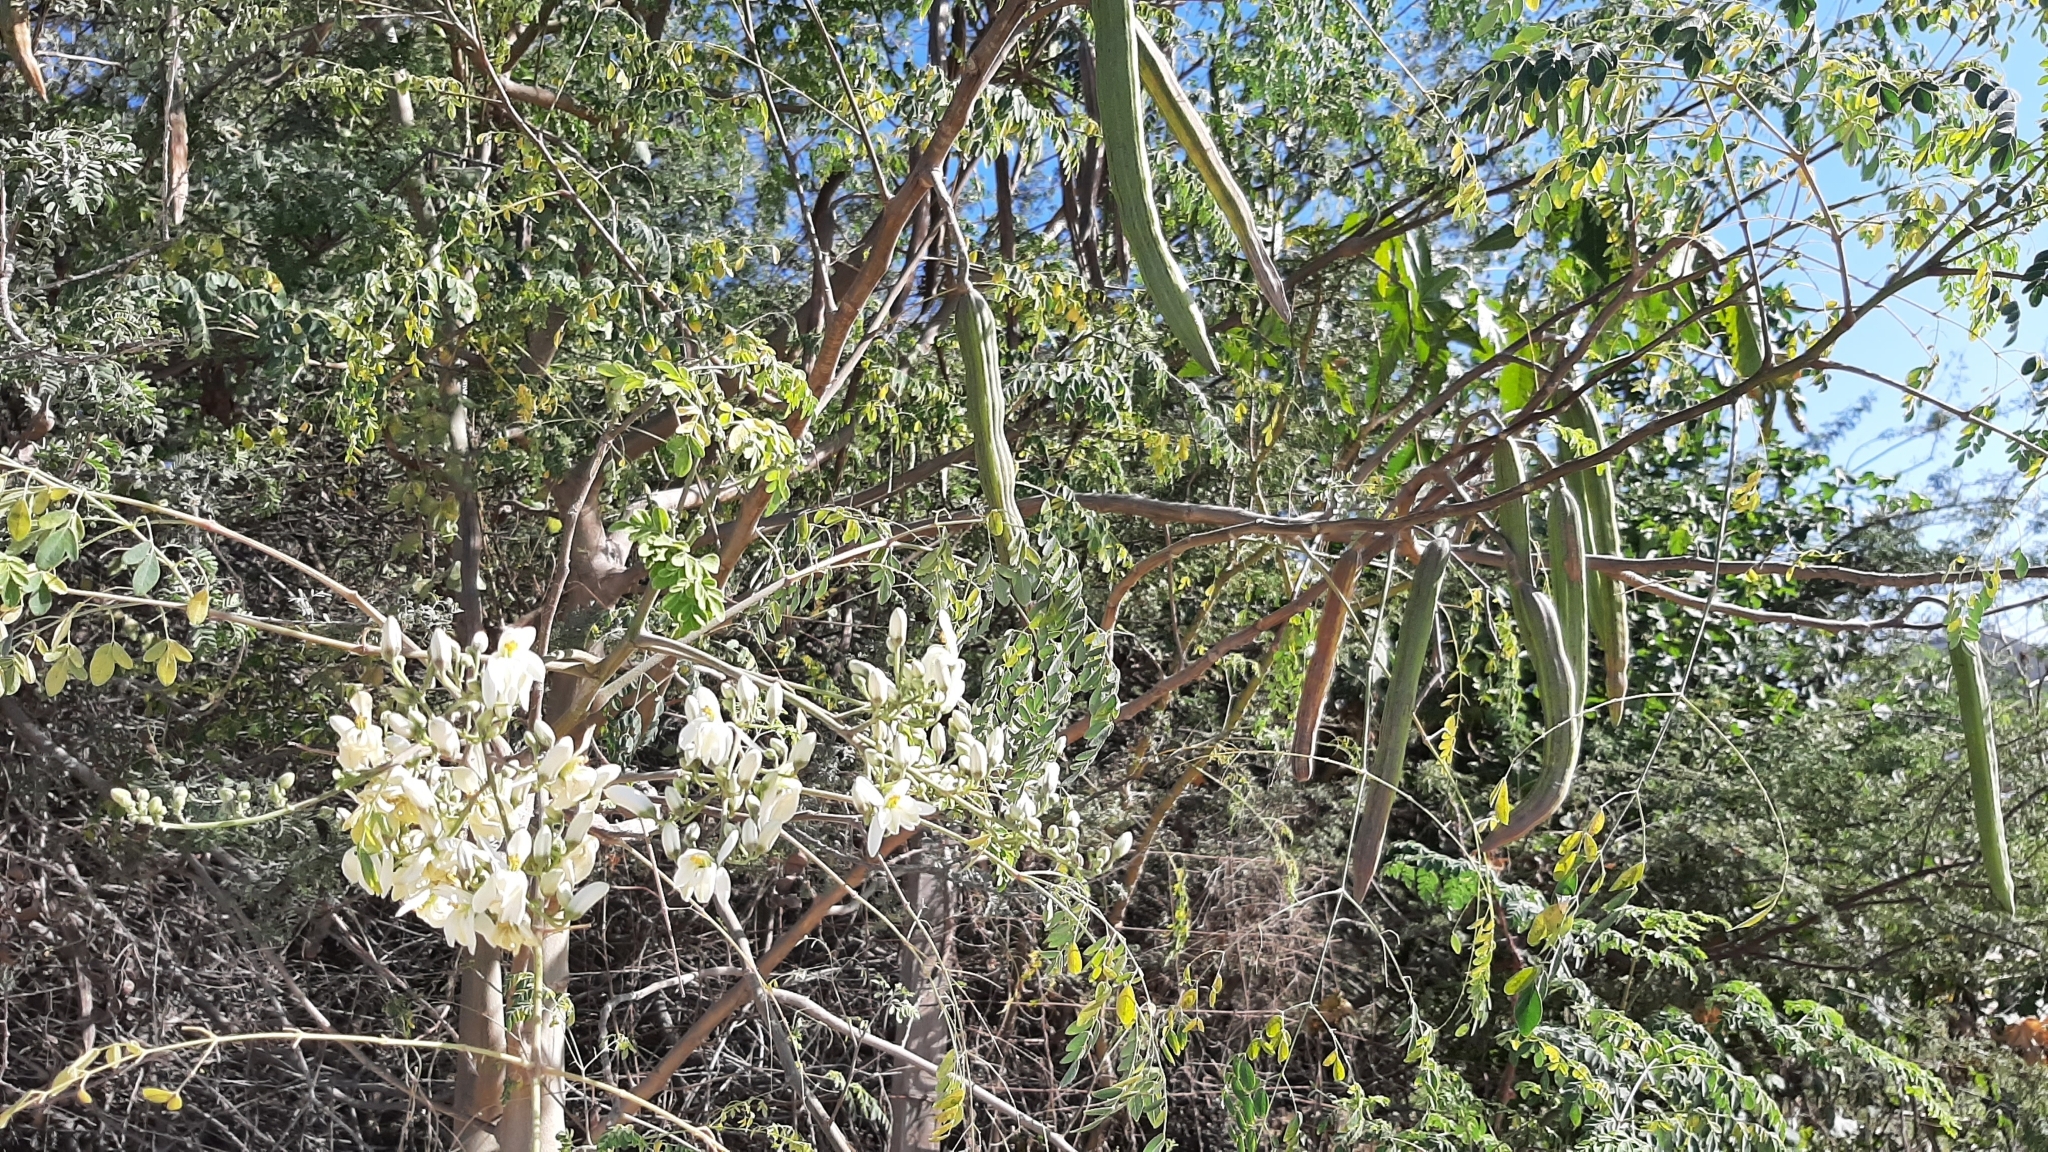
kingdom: Plantae
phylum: Tracheophyta
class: Magnoliopsida
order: Brassicales
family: Moringaceae
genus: Moringa
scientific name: Moringa oleifera
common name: Horseradish-tree
